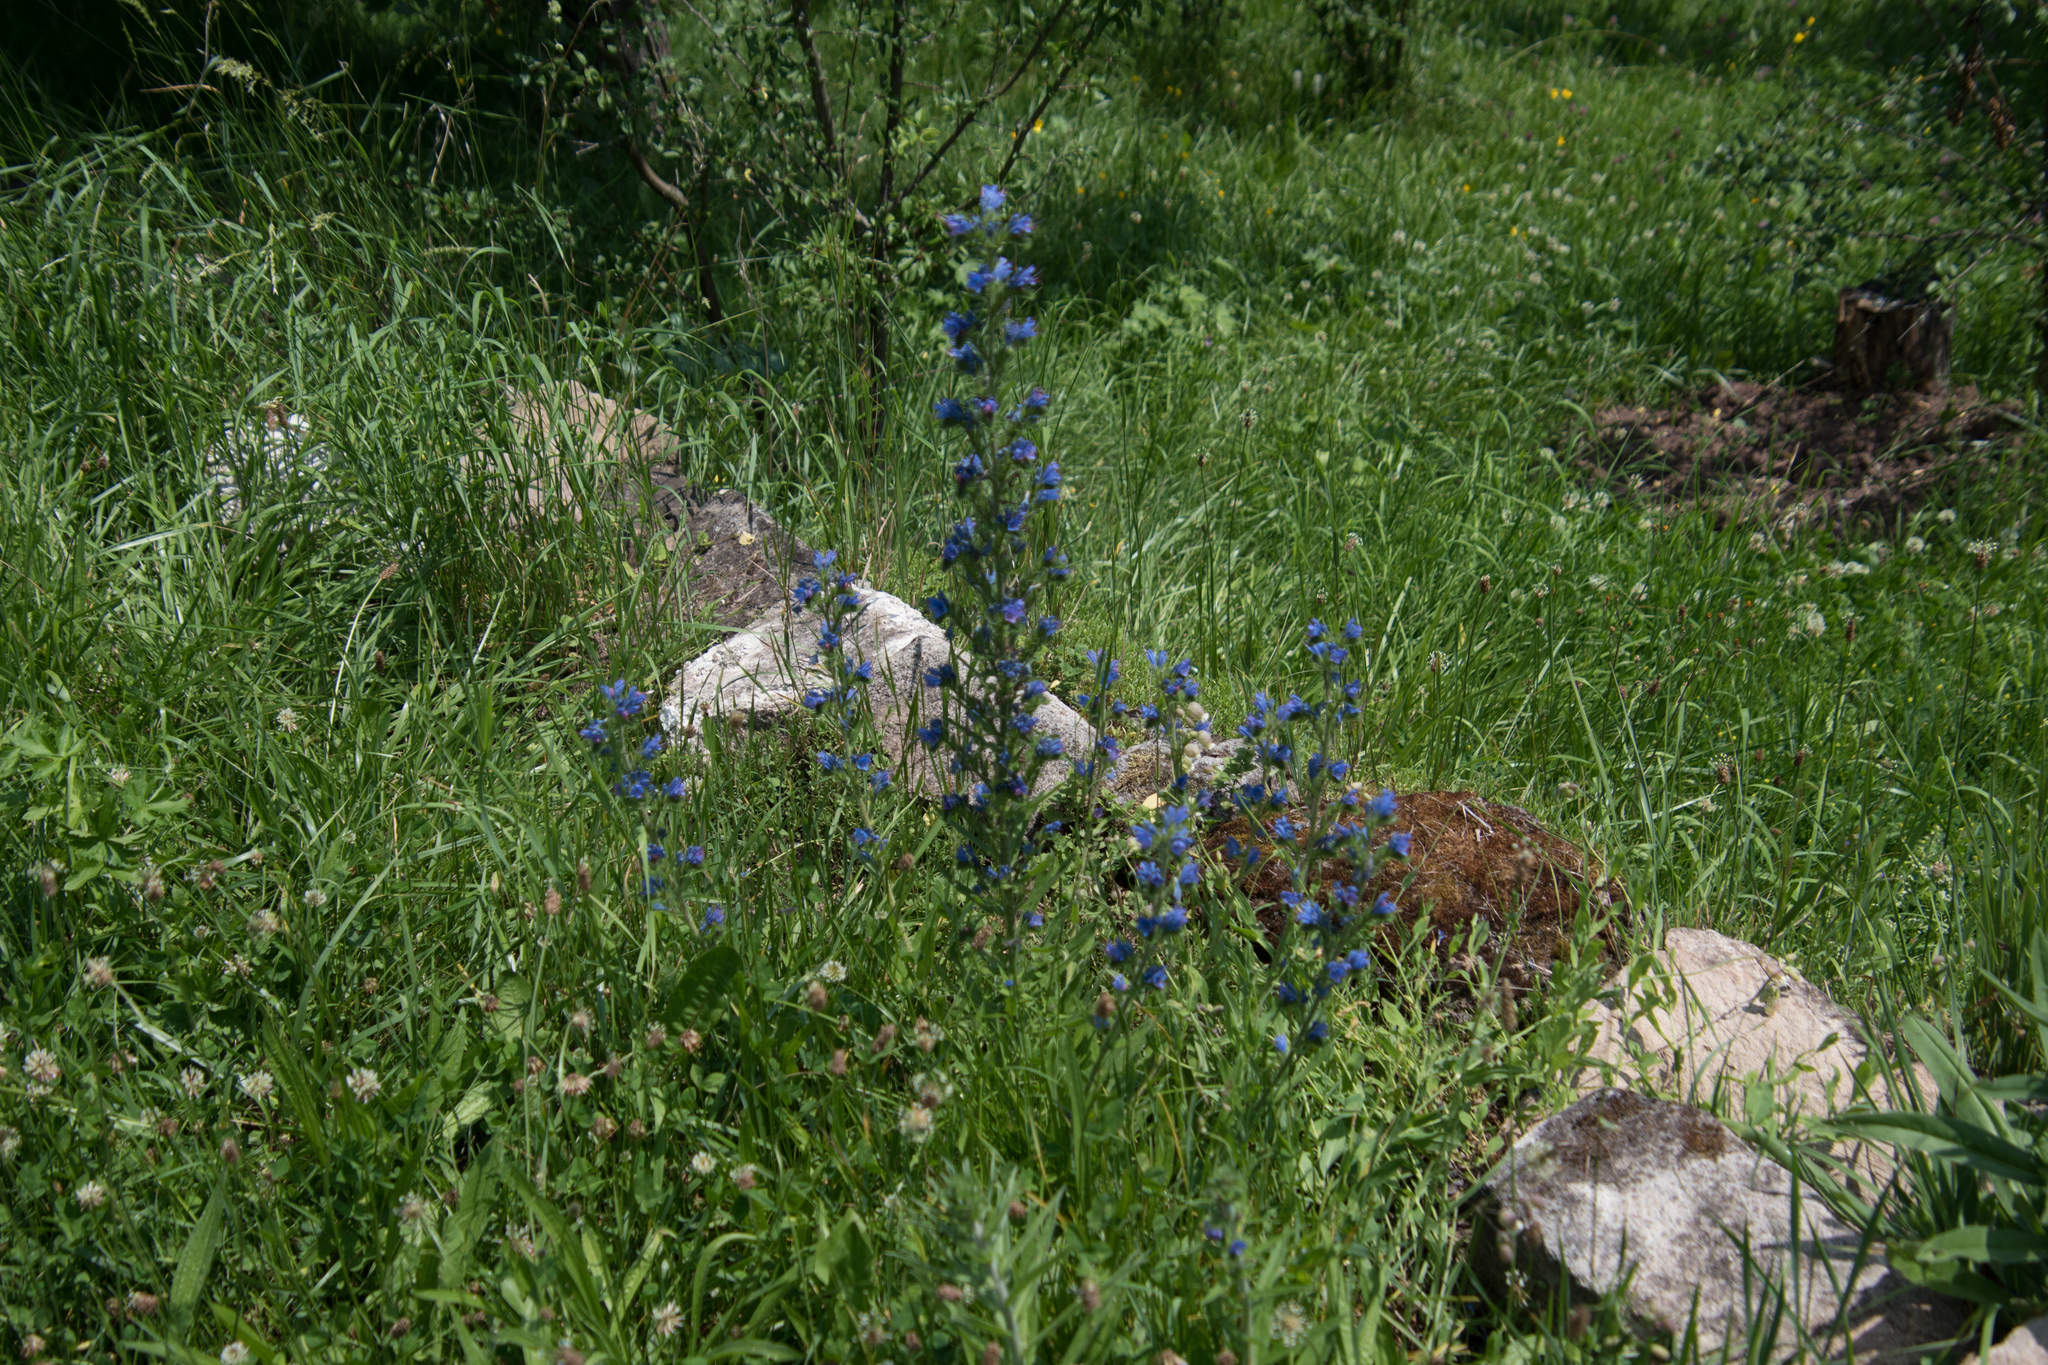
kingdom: Plantae
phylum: Tracheophyta
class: Magnoliopsida
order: Boraginales
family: Boraginaceae
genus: Echium
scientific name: Echium vulgare
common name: Common viper's bugloss
